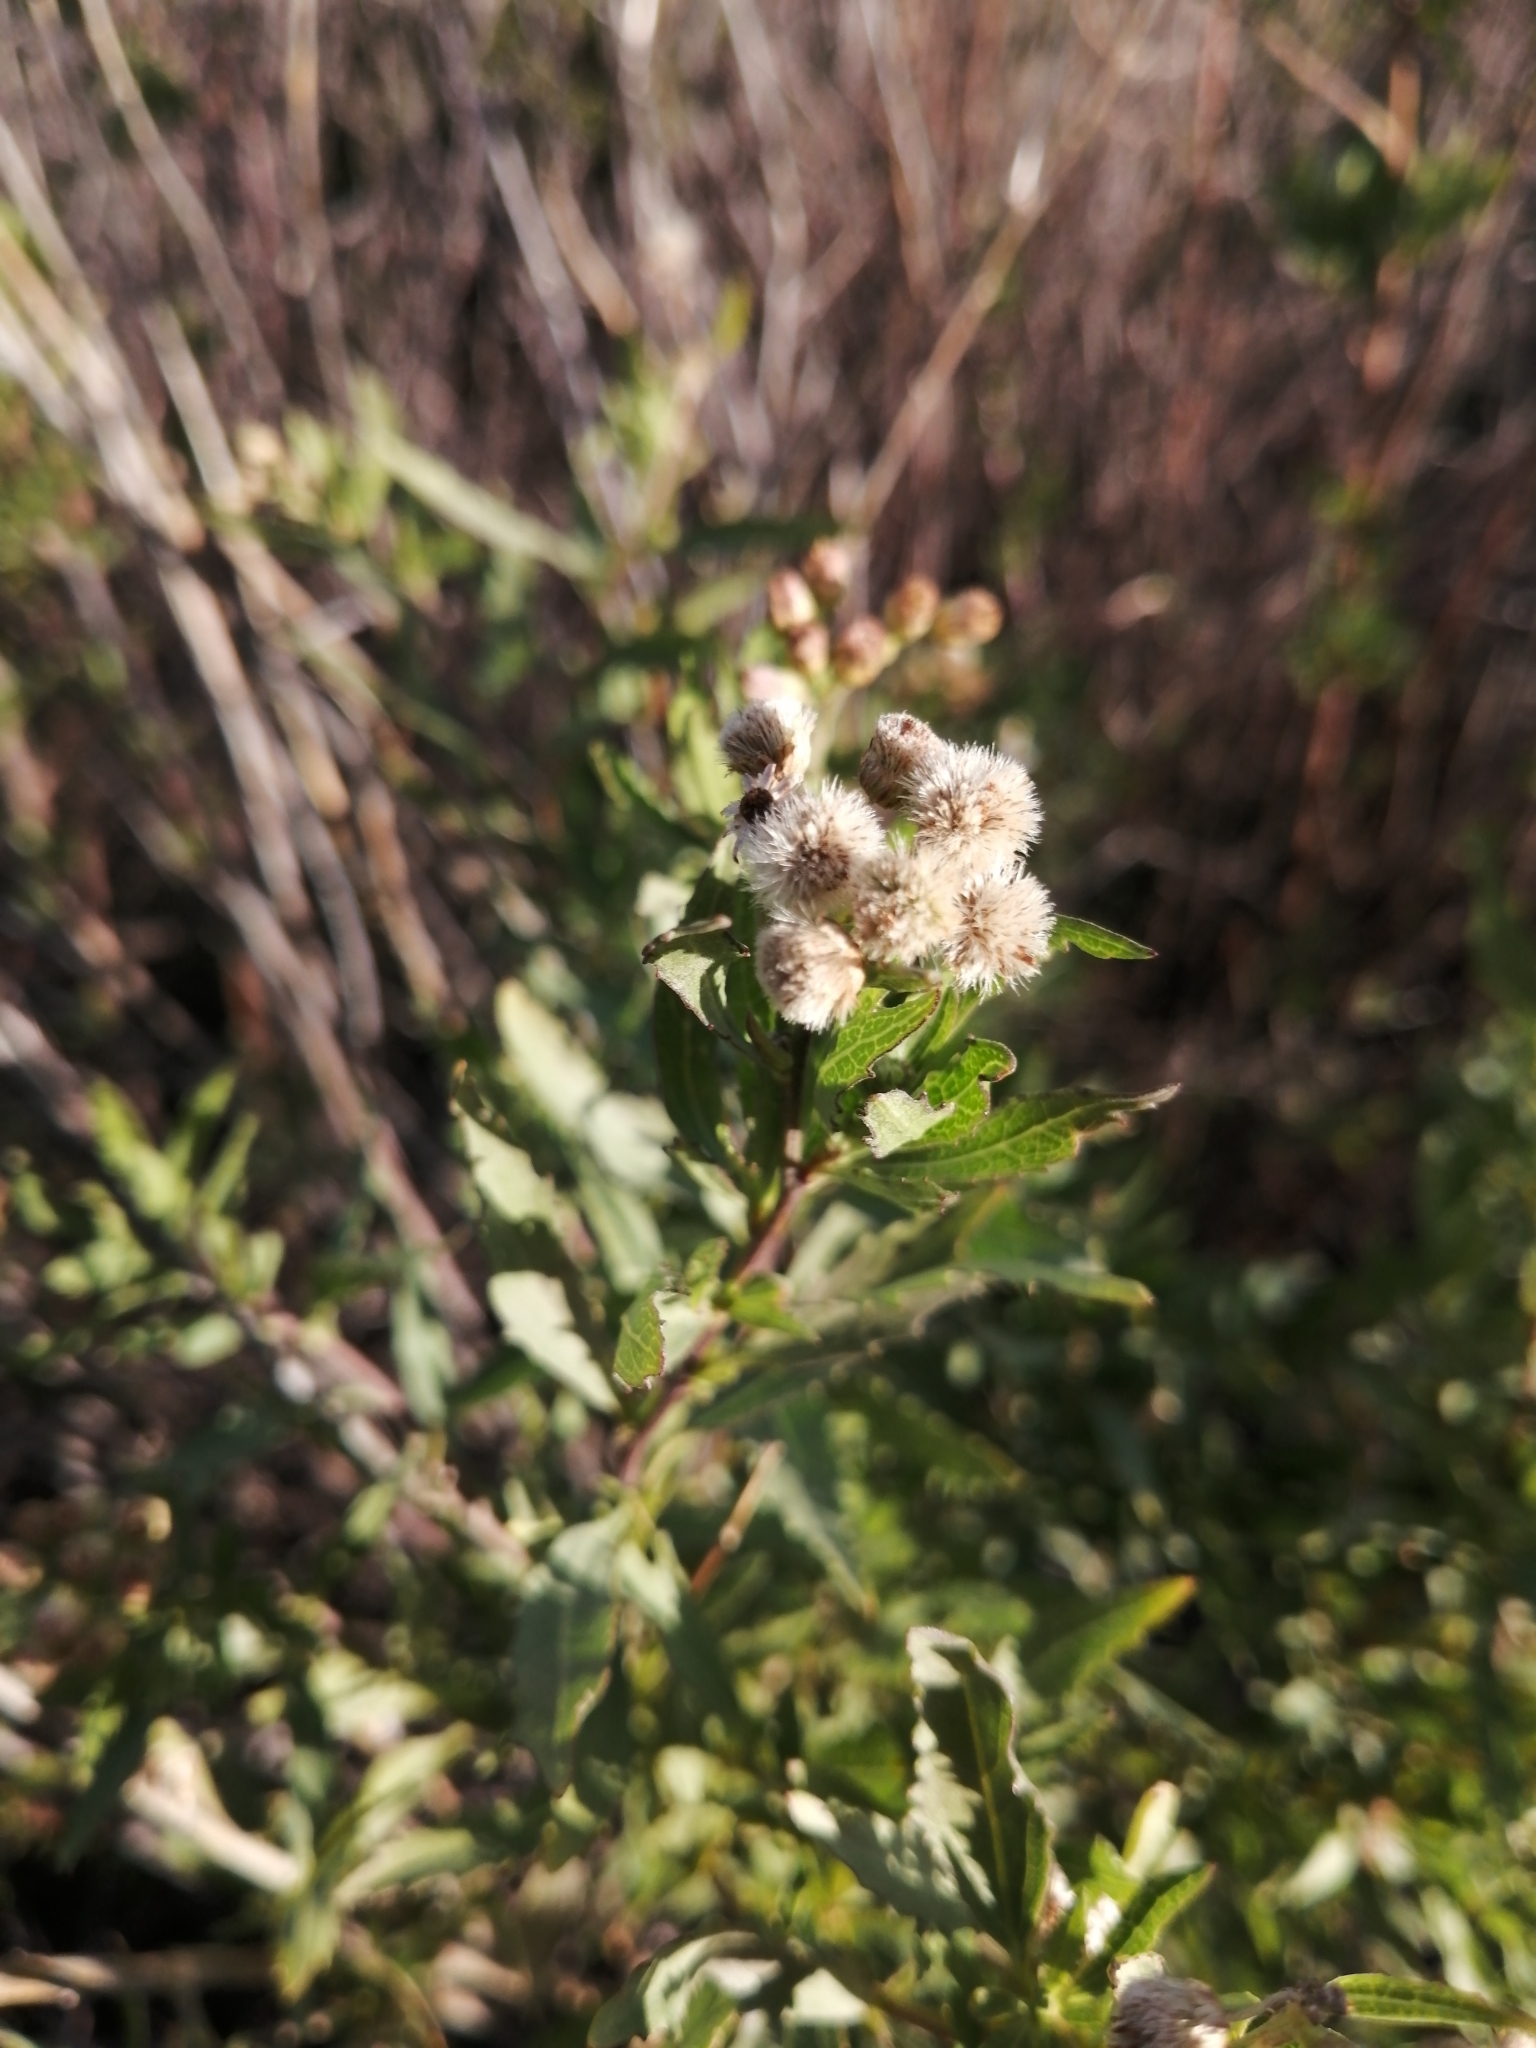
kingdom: Plantae
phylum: Tracheophyta
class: Magnoliopsida
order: Asterales
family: Asteraceae
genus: Nidorella
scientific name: Nidorella ivifolia
